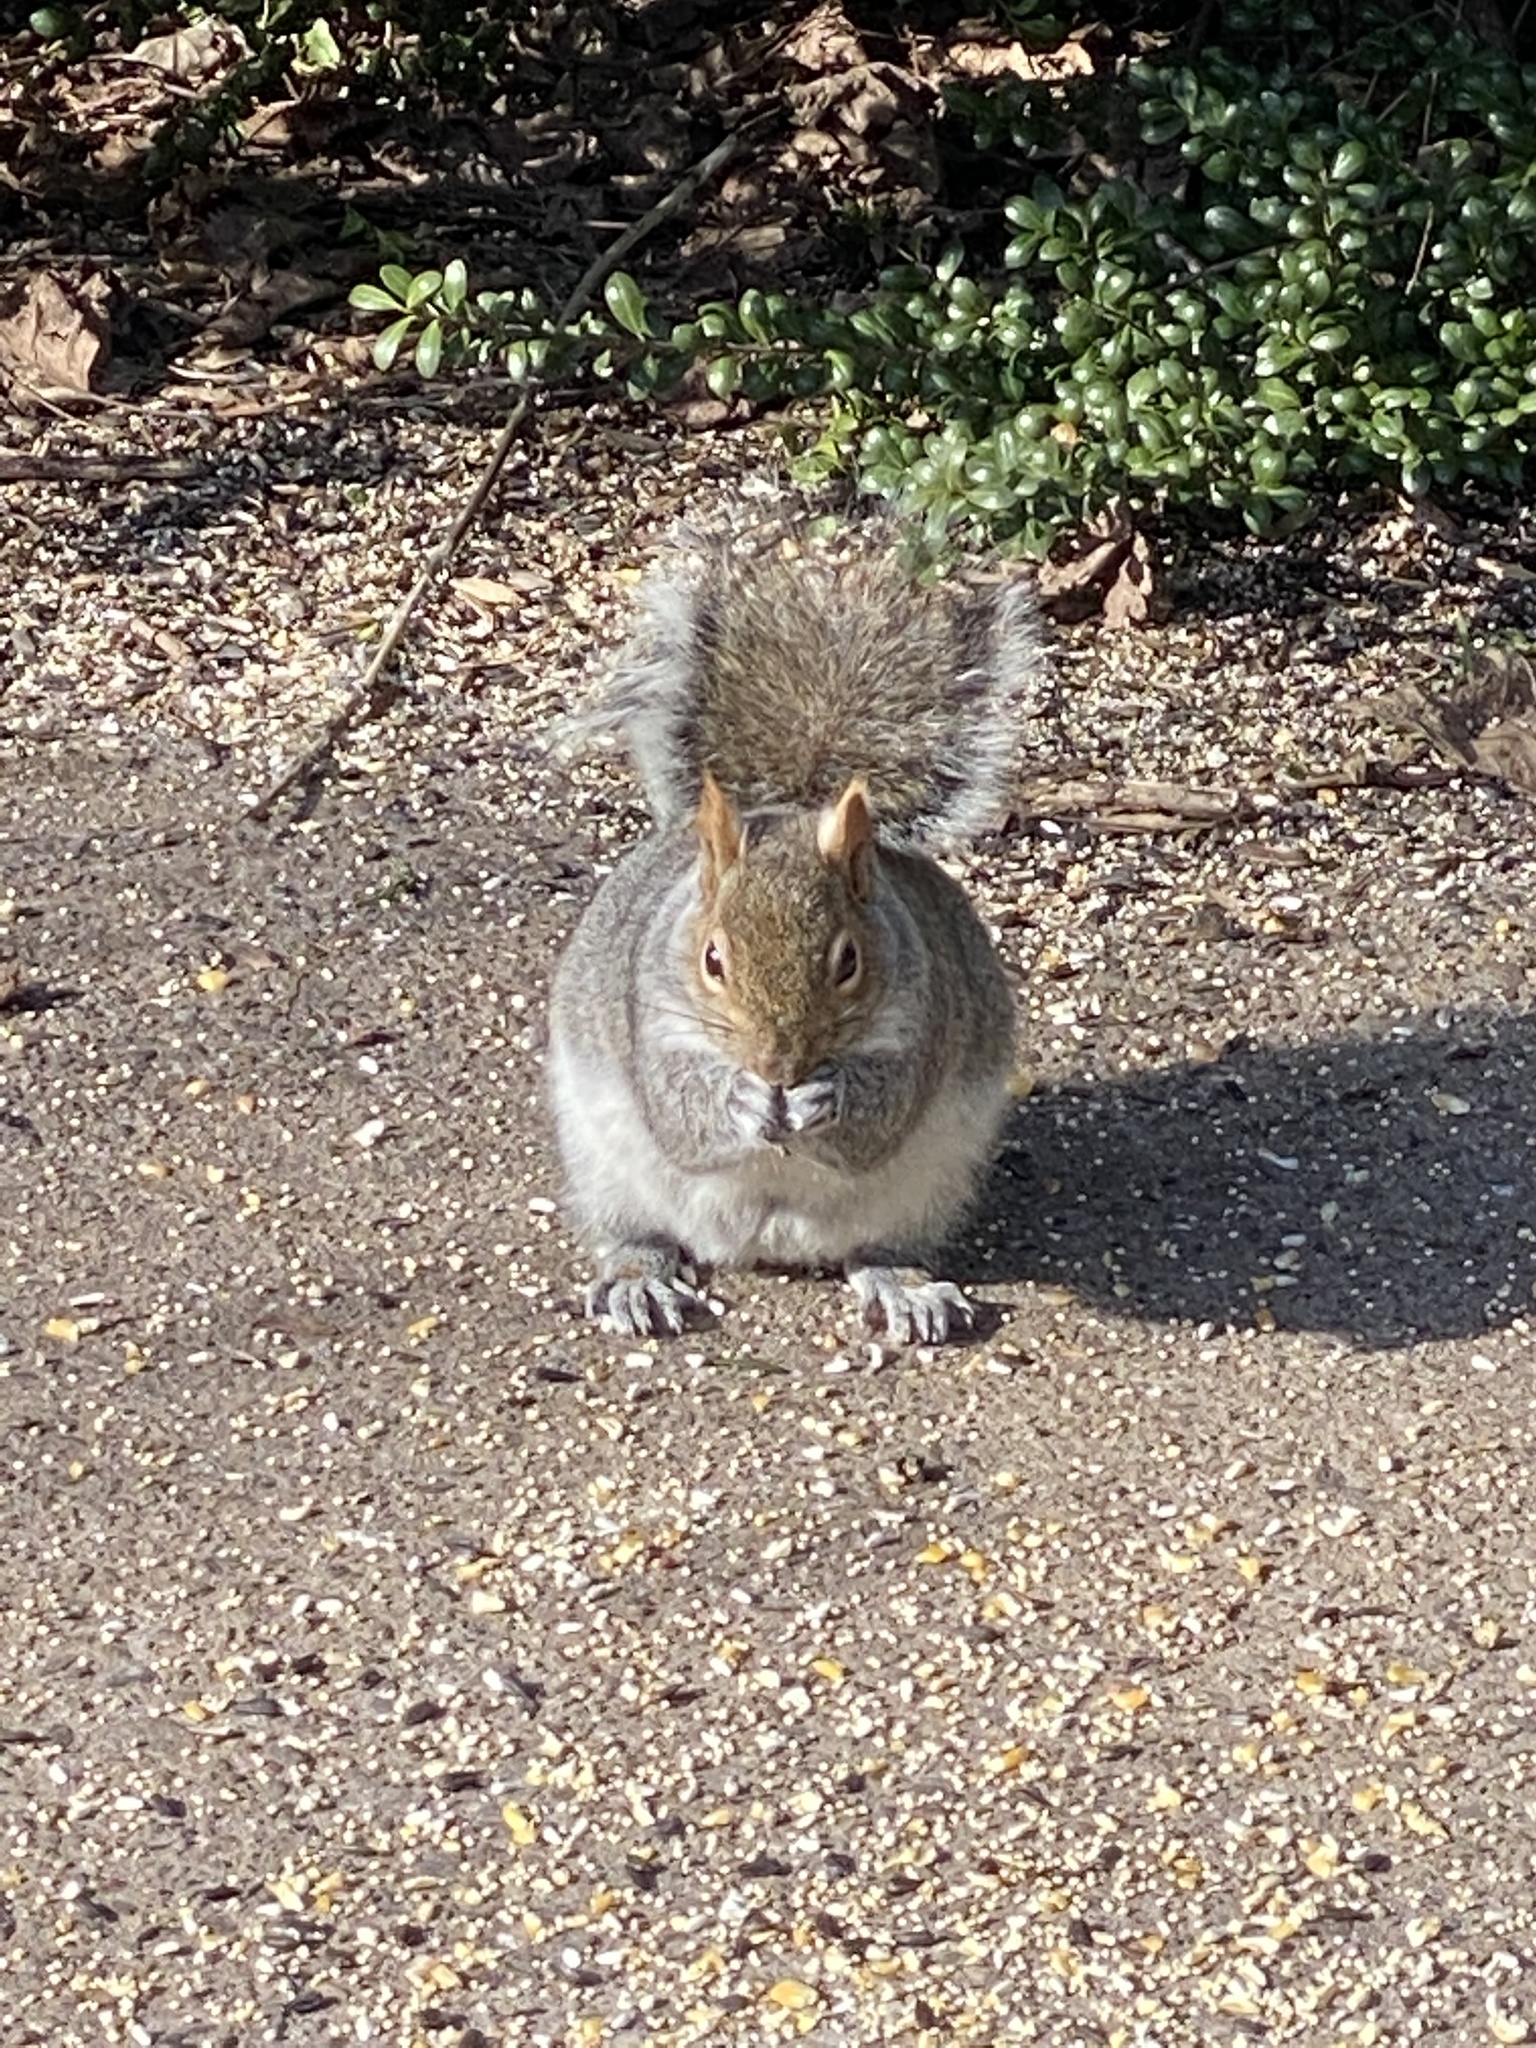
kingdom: Animalia
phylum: Chordata
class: Mammalia
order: Rodentia
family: Sciuridae
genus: Sciurus
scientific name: Sciurus carolinensis
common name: Eastern gray squirrel
